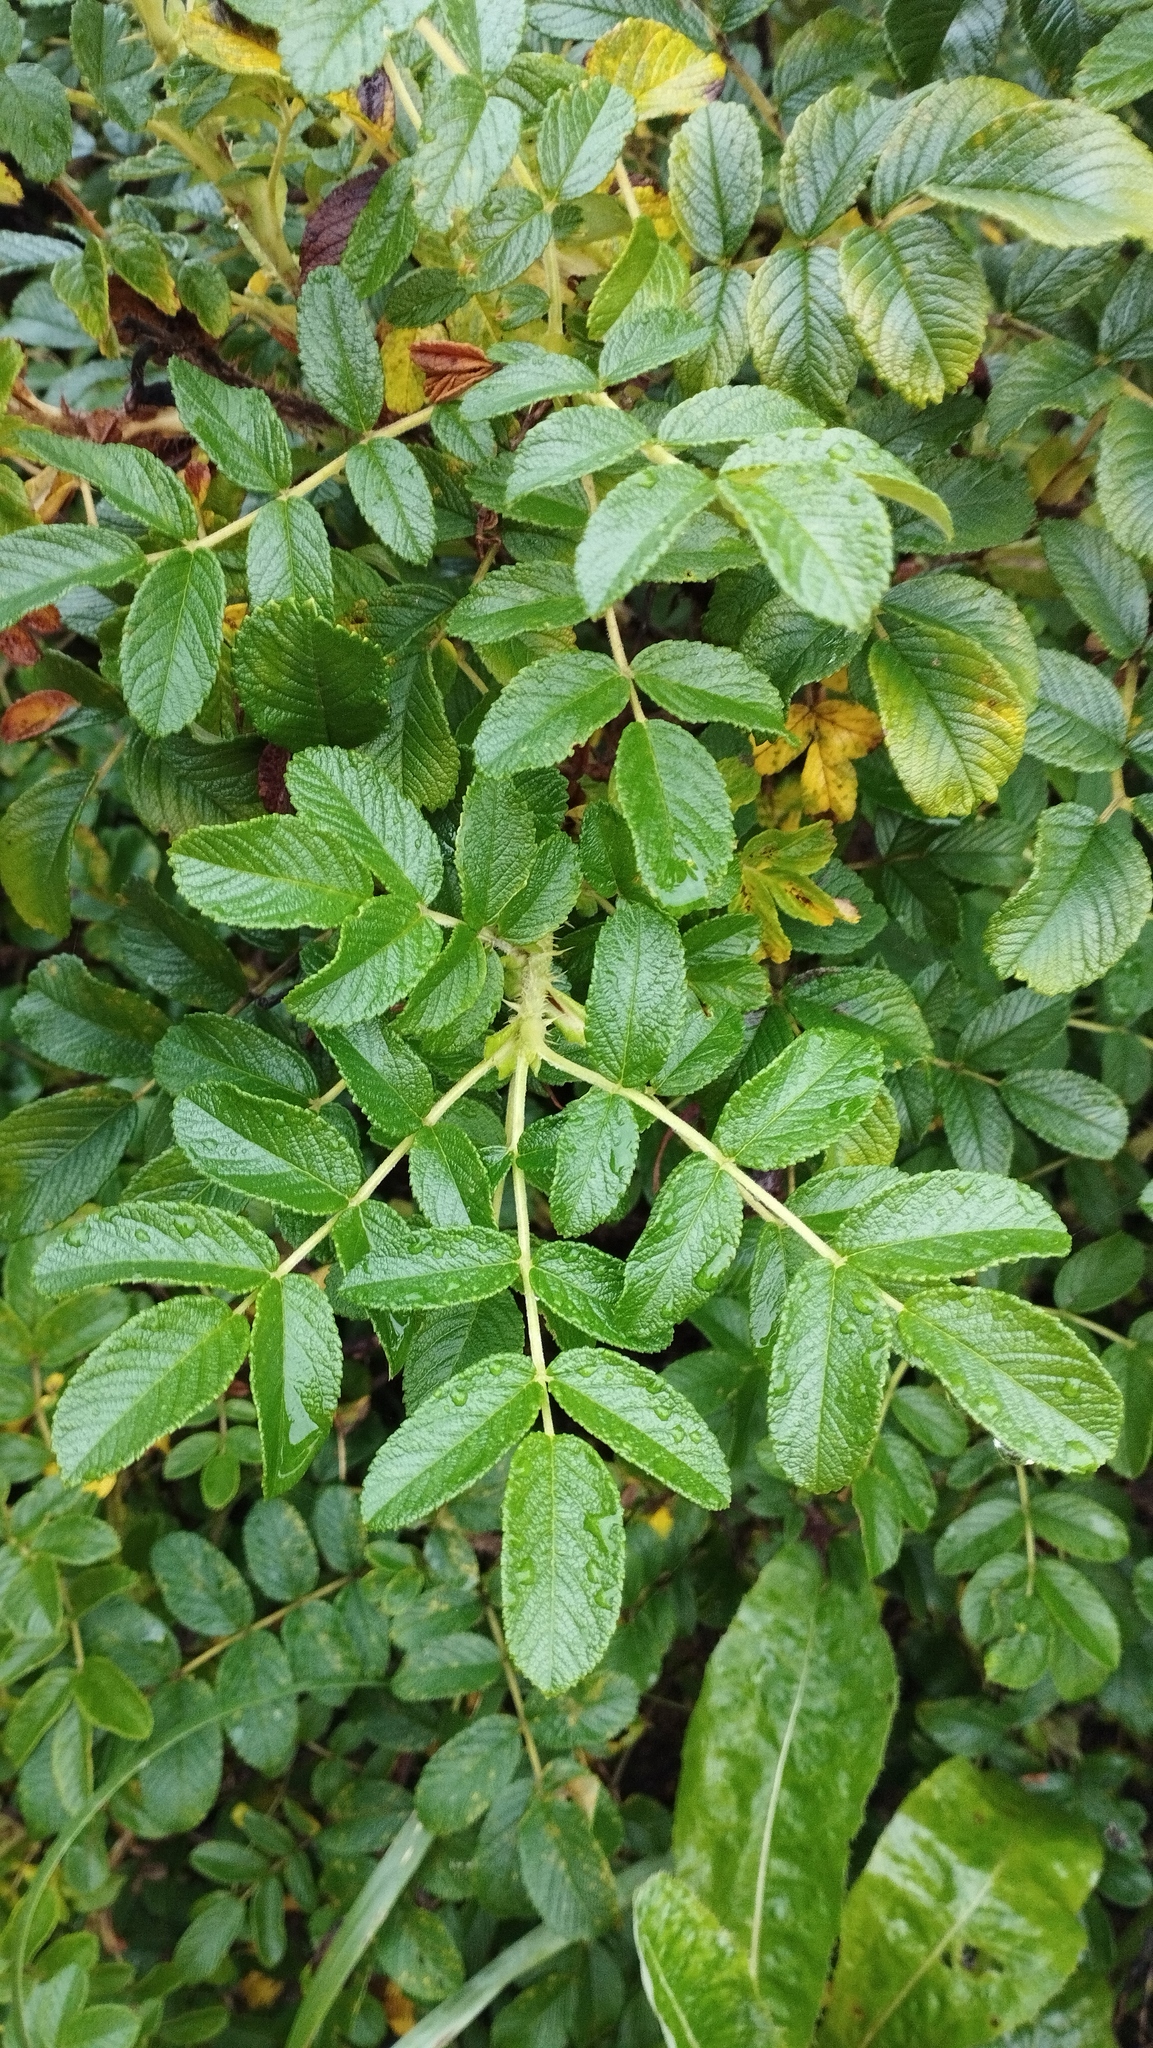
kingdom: Plantae
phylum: Tracheophyta
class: Magnoliopsida
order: Rosales
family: Rosaceae
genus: Rosa
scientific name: Rosa rugosa
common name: Japanese rose
